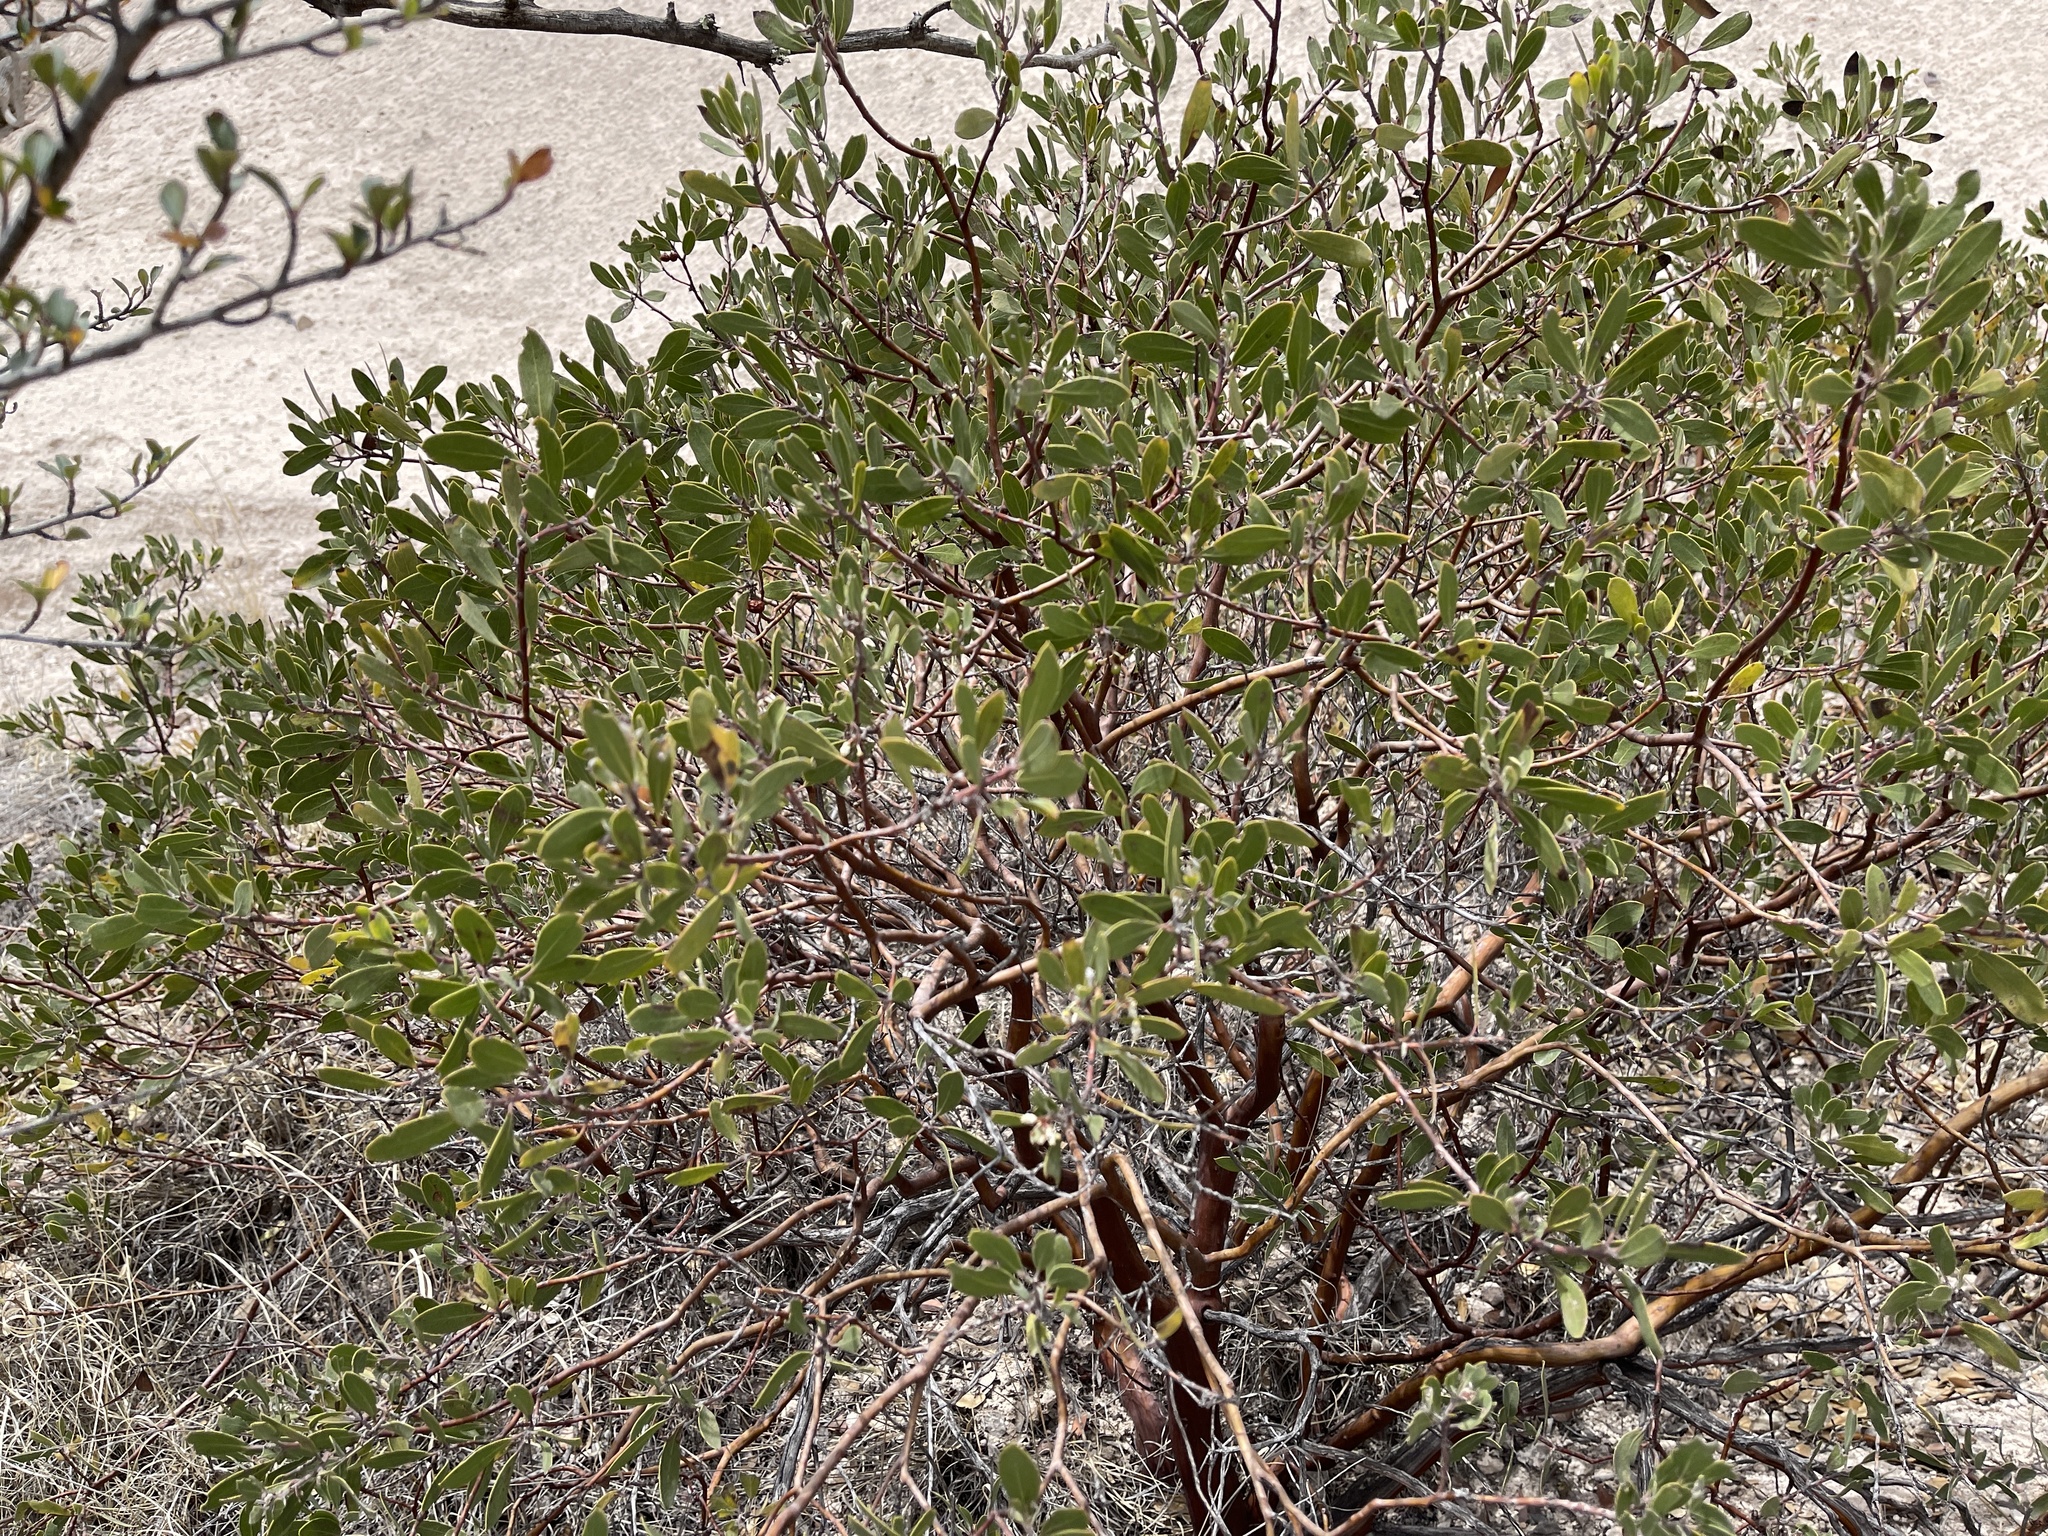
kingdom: Plantae
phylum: Tracheophyta
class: Magnoliopsida
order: Ericales
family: Ericaceae
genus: Arctostaphylos
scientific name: Arctostaphylos pungens
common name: Mexican manzanita
